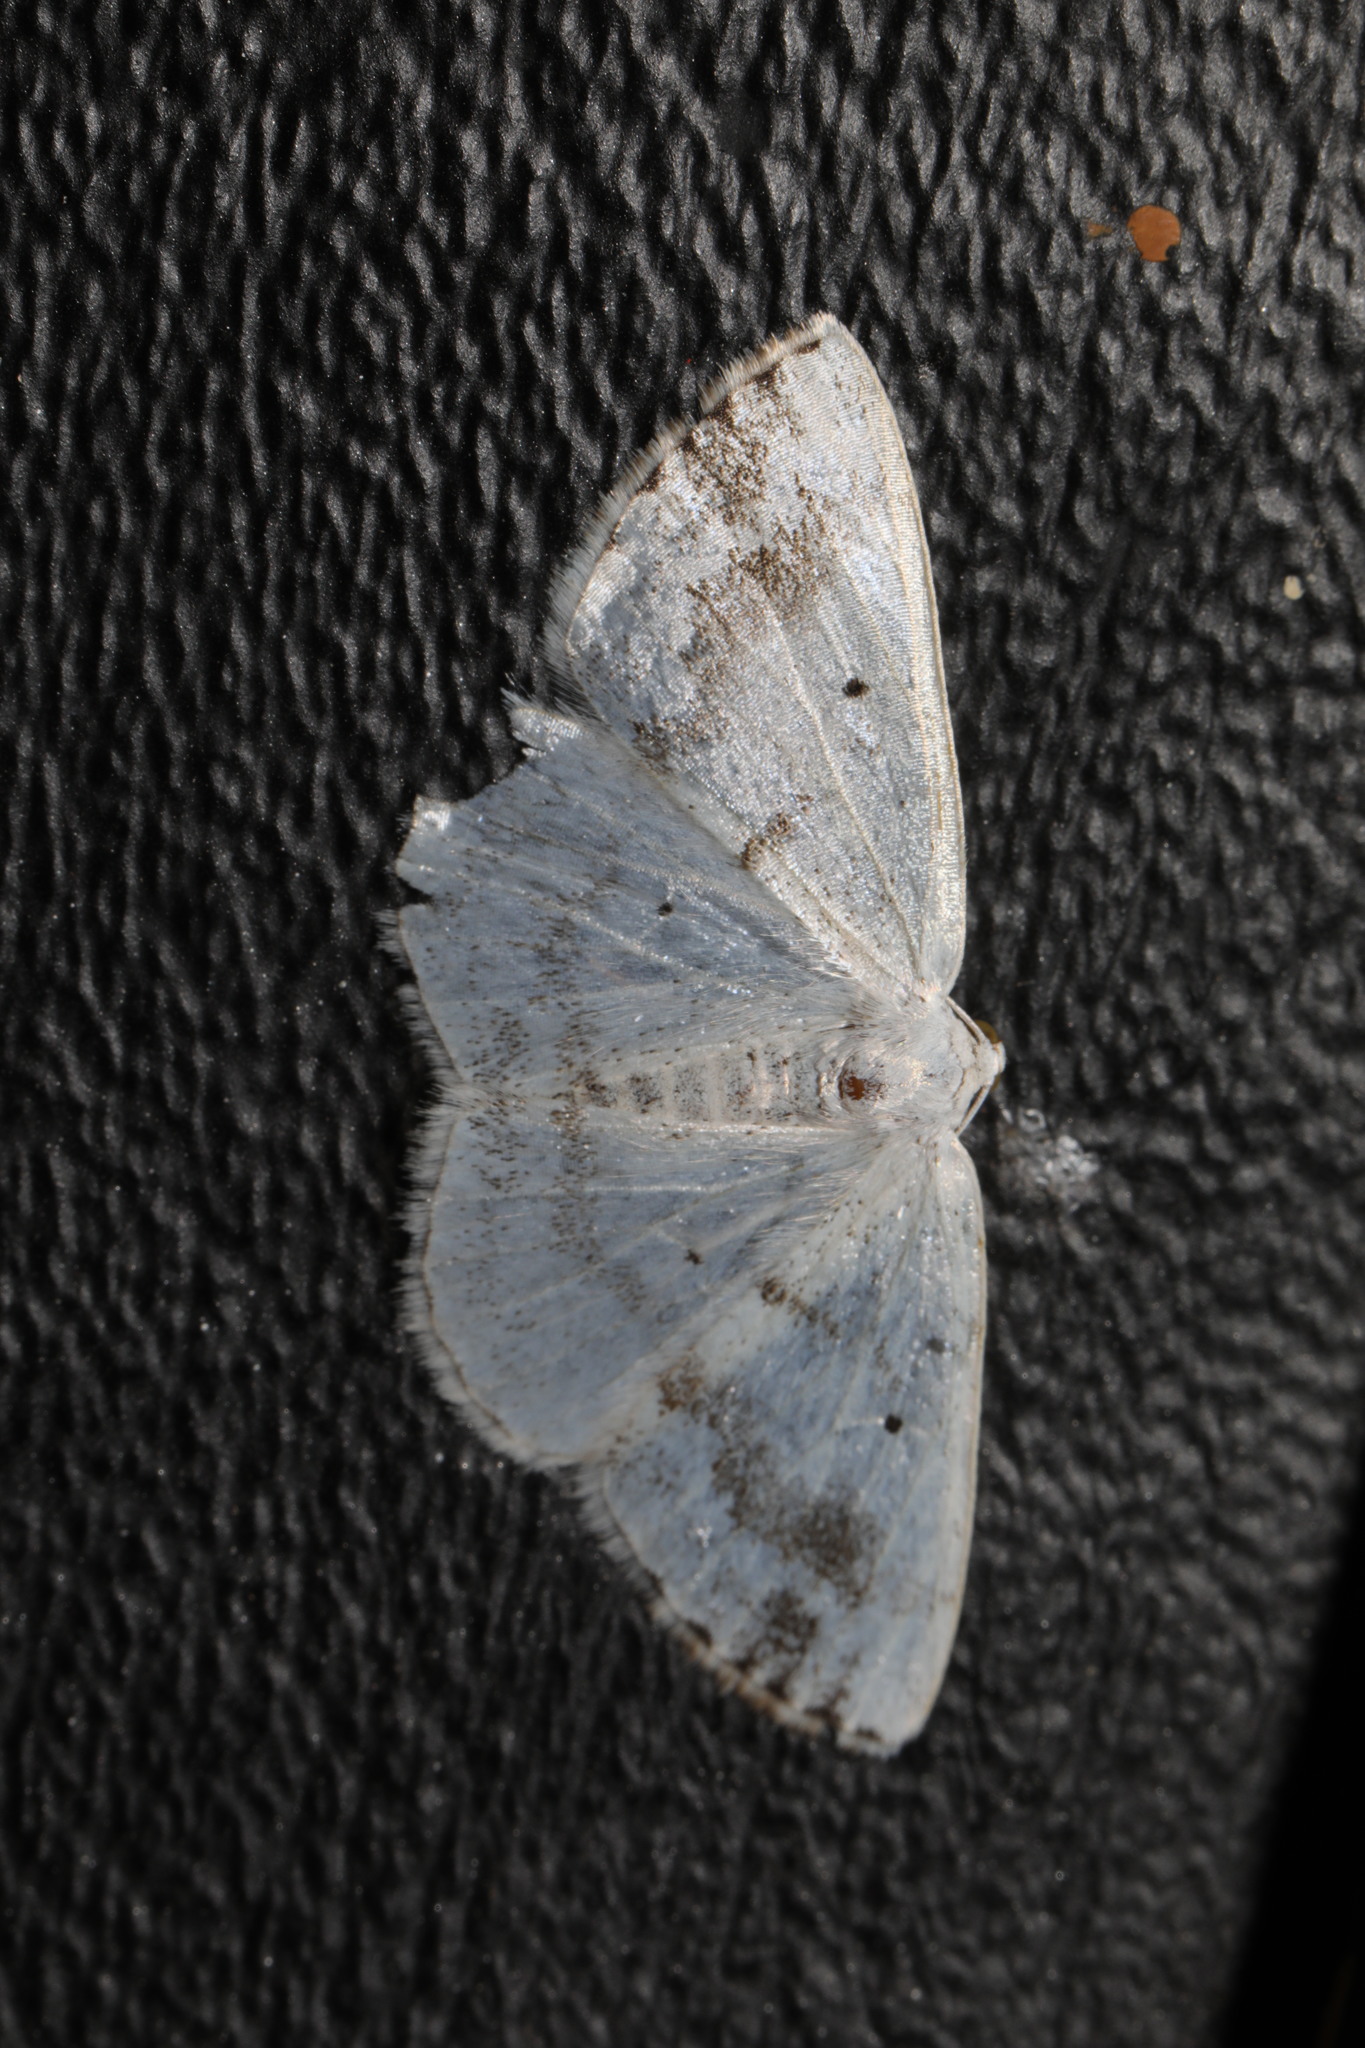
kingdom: Animalia
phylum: Arthropoda
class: Insecta
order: Lepidoptera
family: Geometridae
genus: Lomographa
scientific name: Lomographa temerata
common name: Clouded silver
